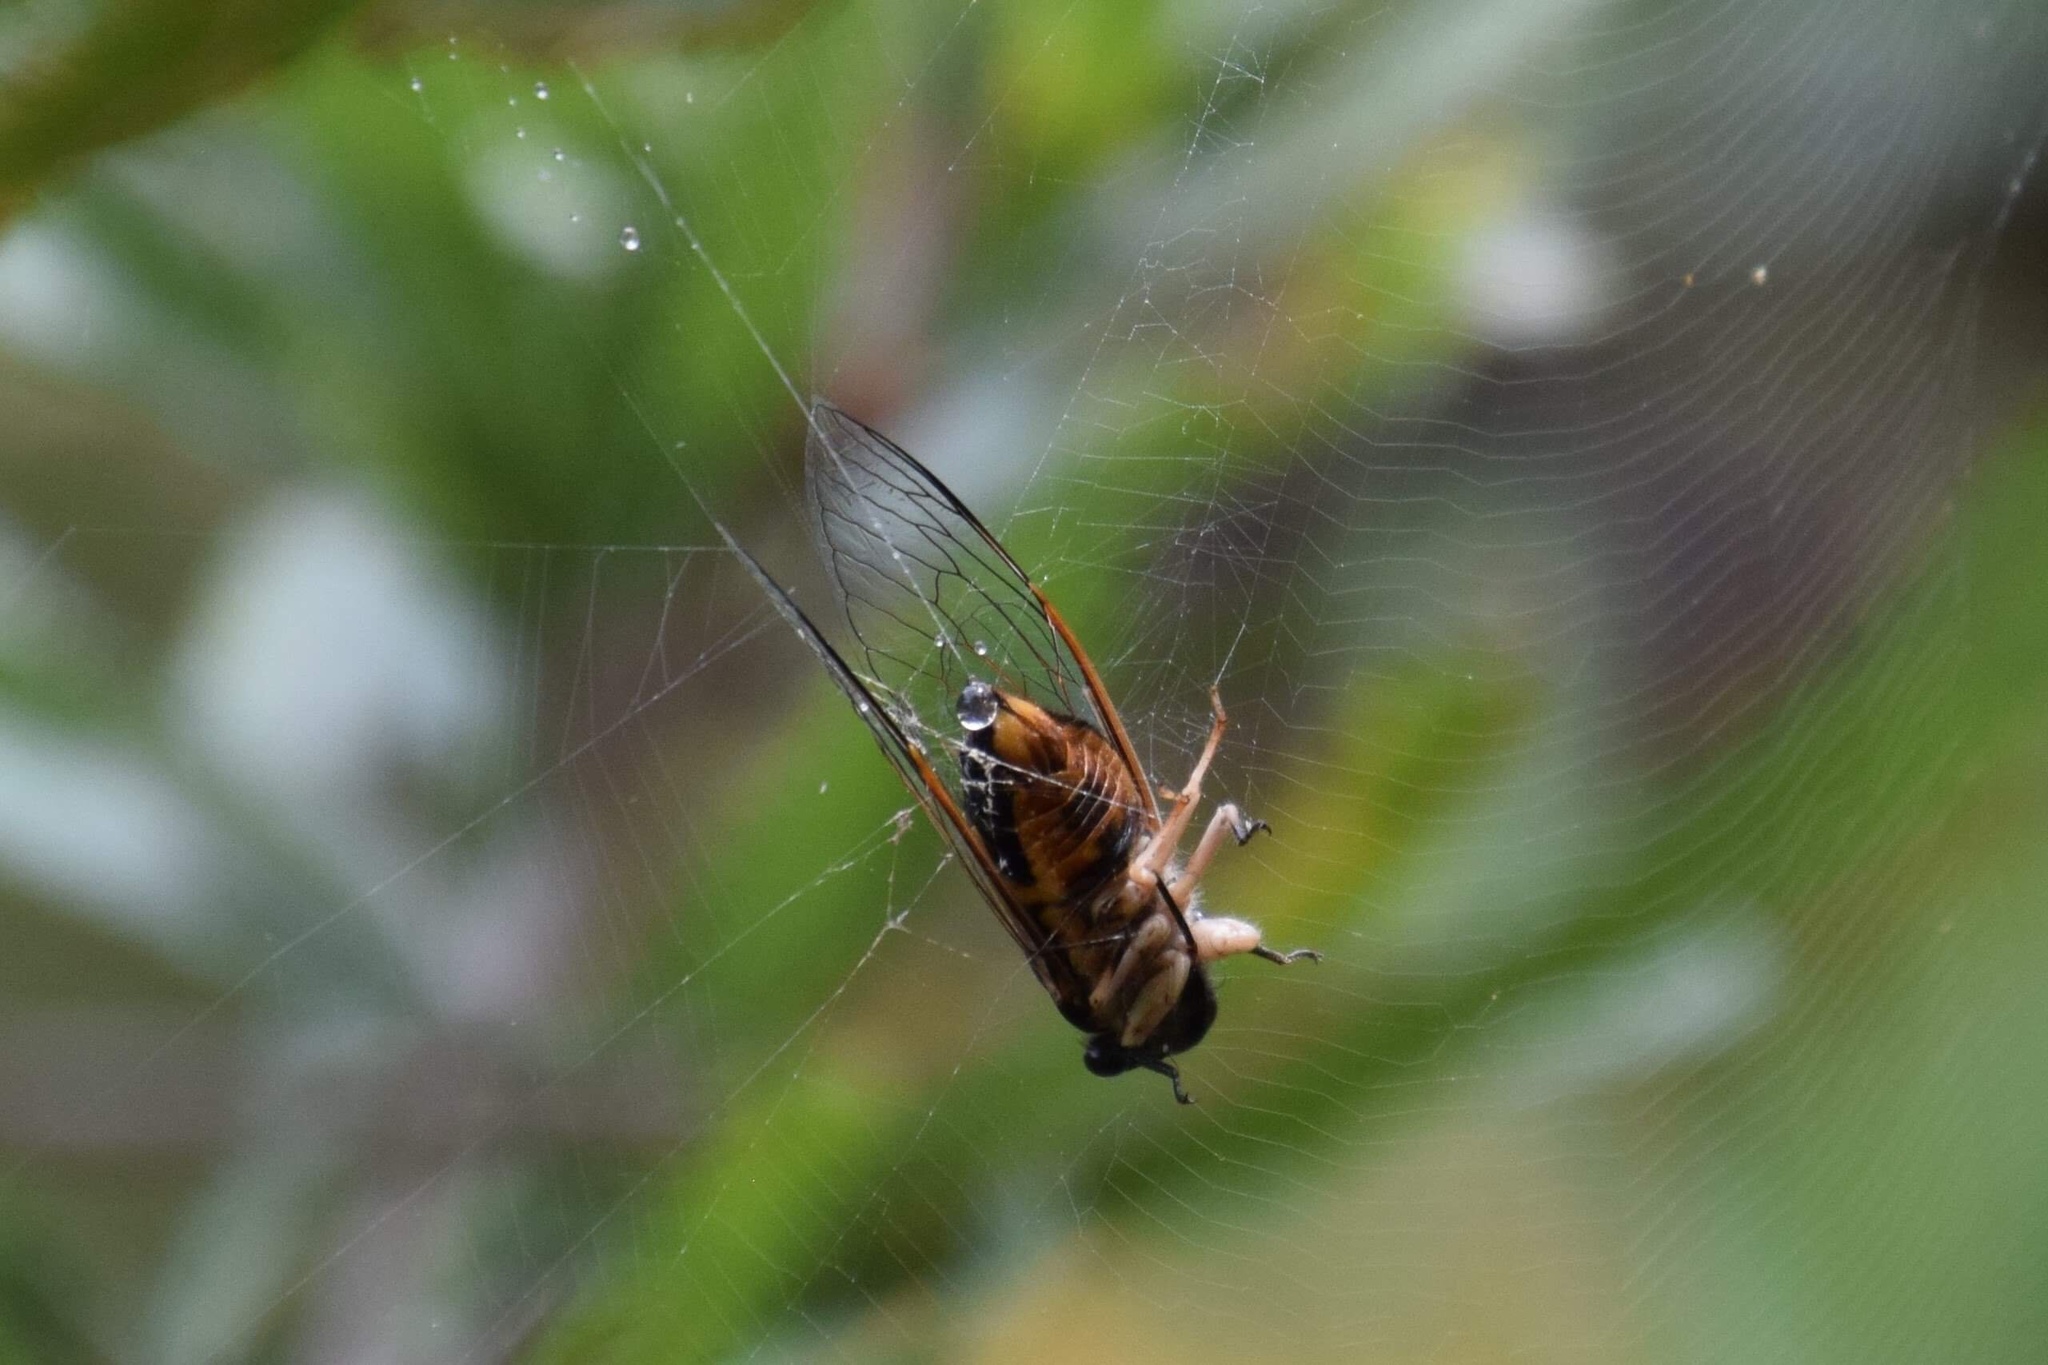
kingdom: Animalia
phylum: Arthropoda
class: Insecta
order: Hemiptera
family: Cicadidae
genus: Psaltoda
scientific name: Psaltoda harrisii
